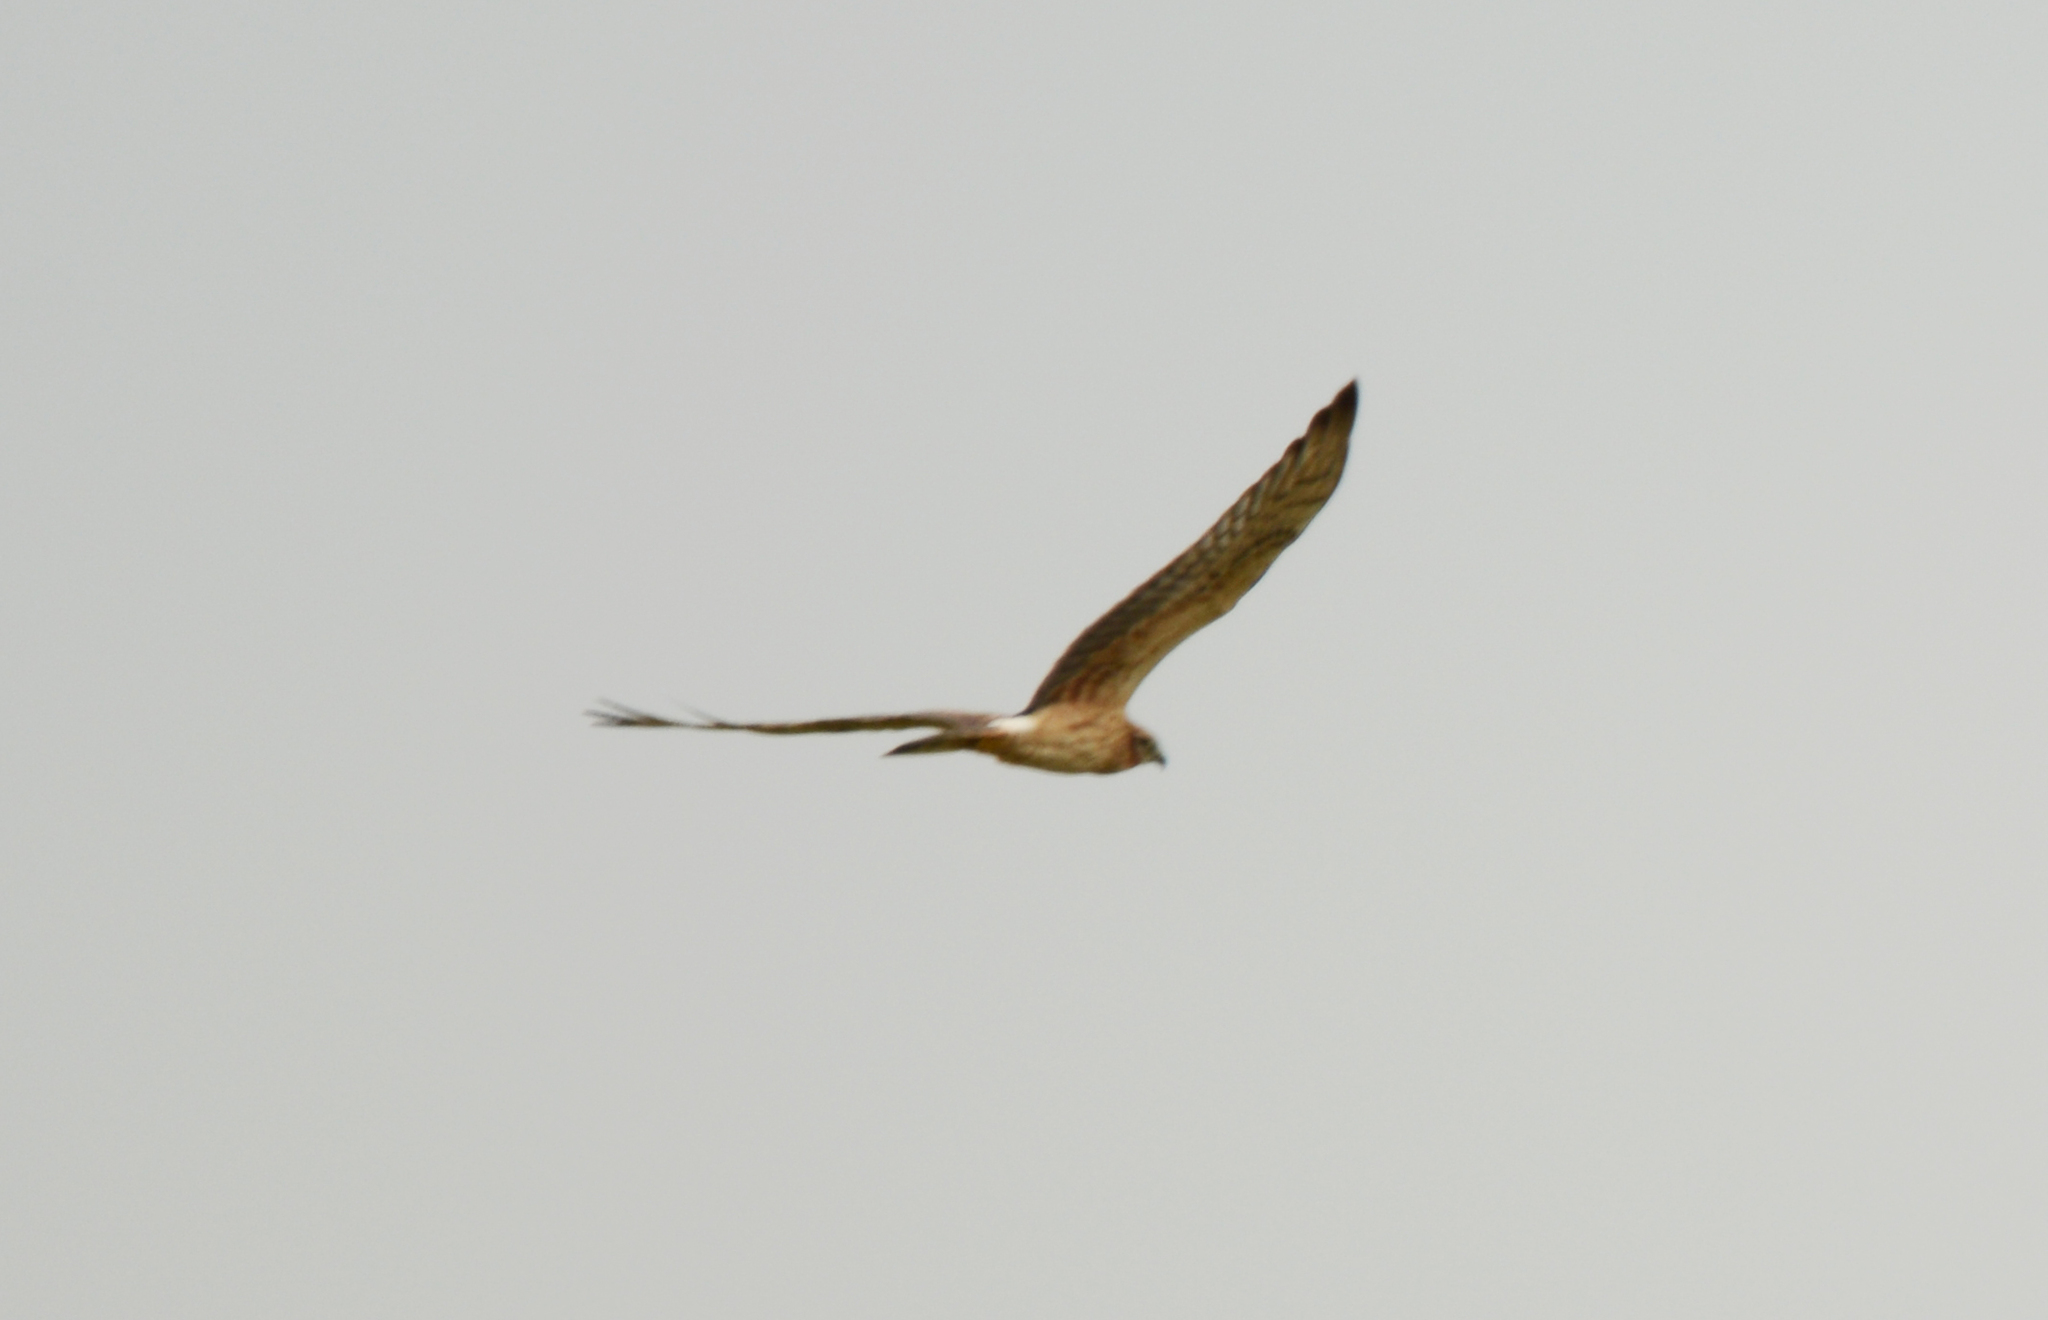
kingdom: Animalia
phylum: Chordata
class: Aves
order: Accipitriformes
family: Accipitridae
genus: Circus
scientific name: Circus pygargus
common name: Montagu's harrier
